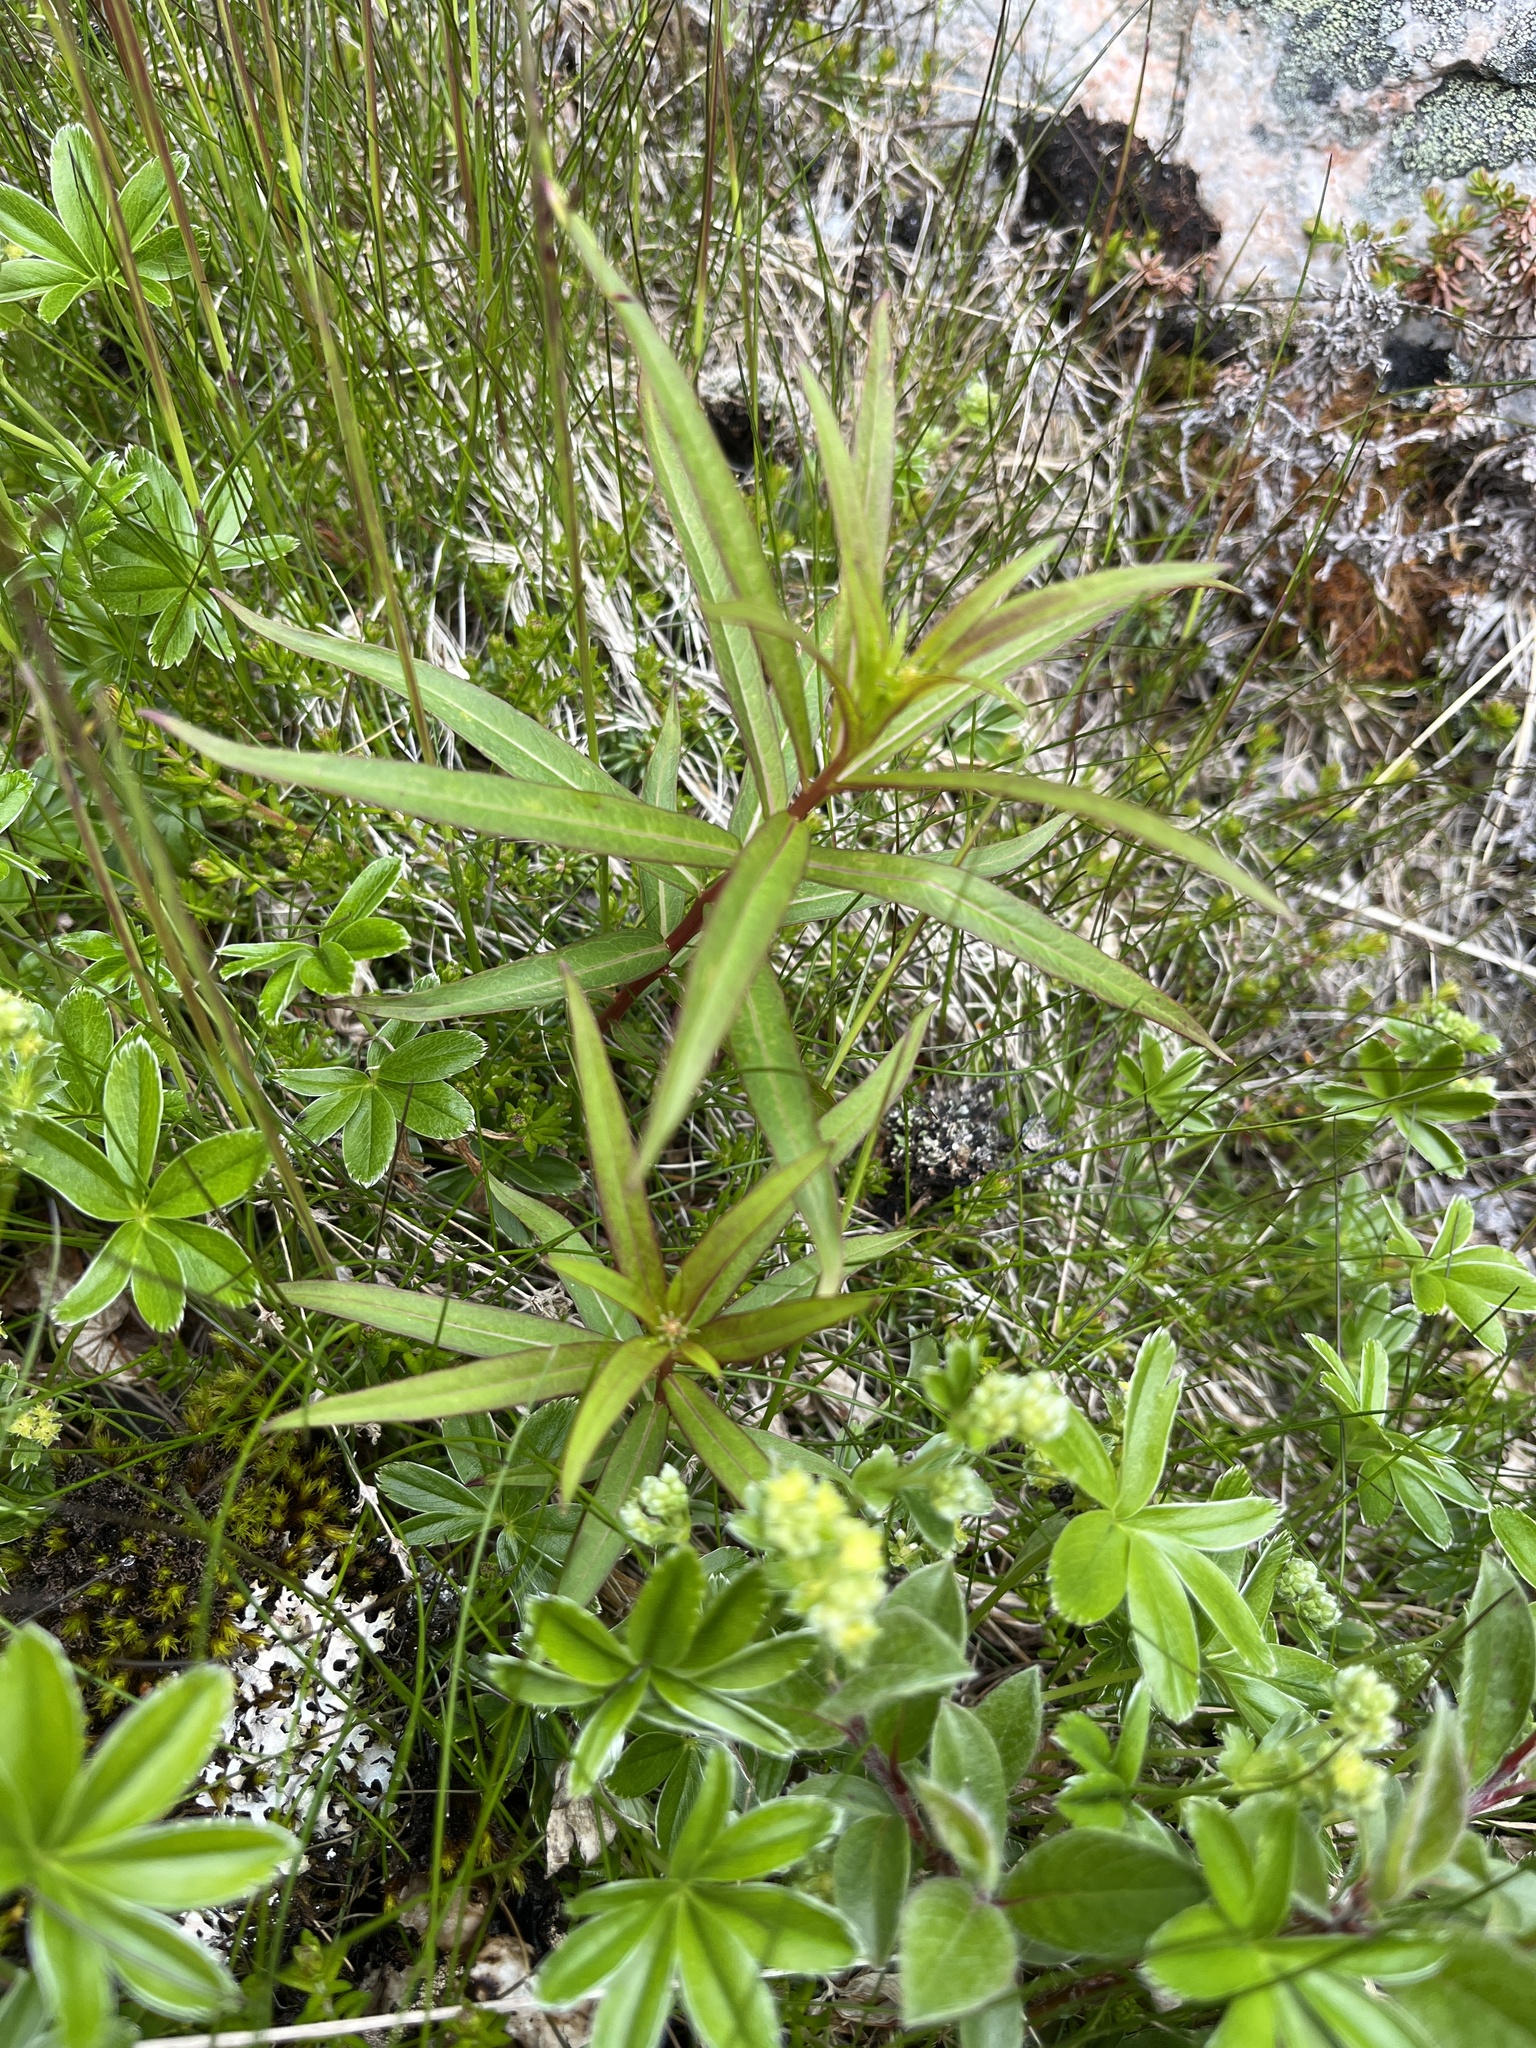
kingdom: Plantae
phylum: Tracheophyta
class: Magnoliopsida
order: Myrtales
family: Onagraceae
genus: Chamaenerion
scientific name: Chamaenerion angustifolium
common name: Fireweed
